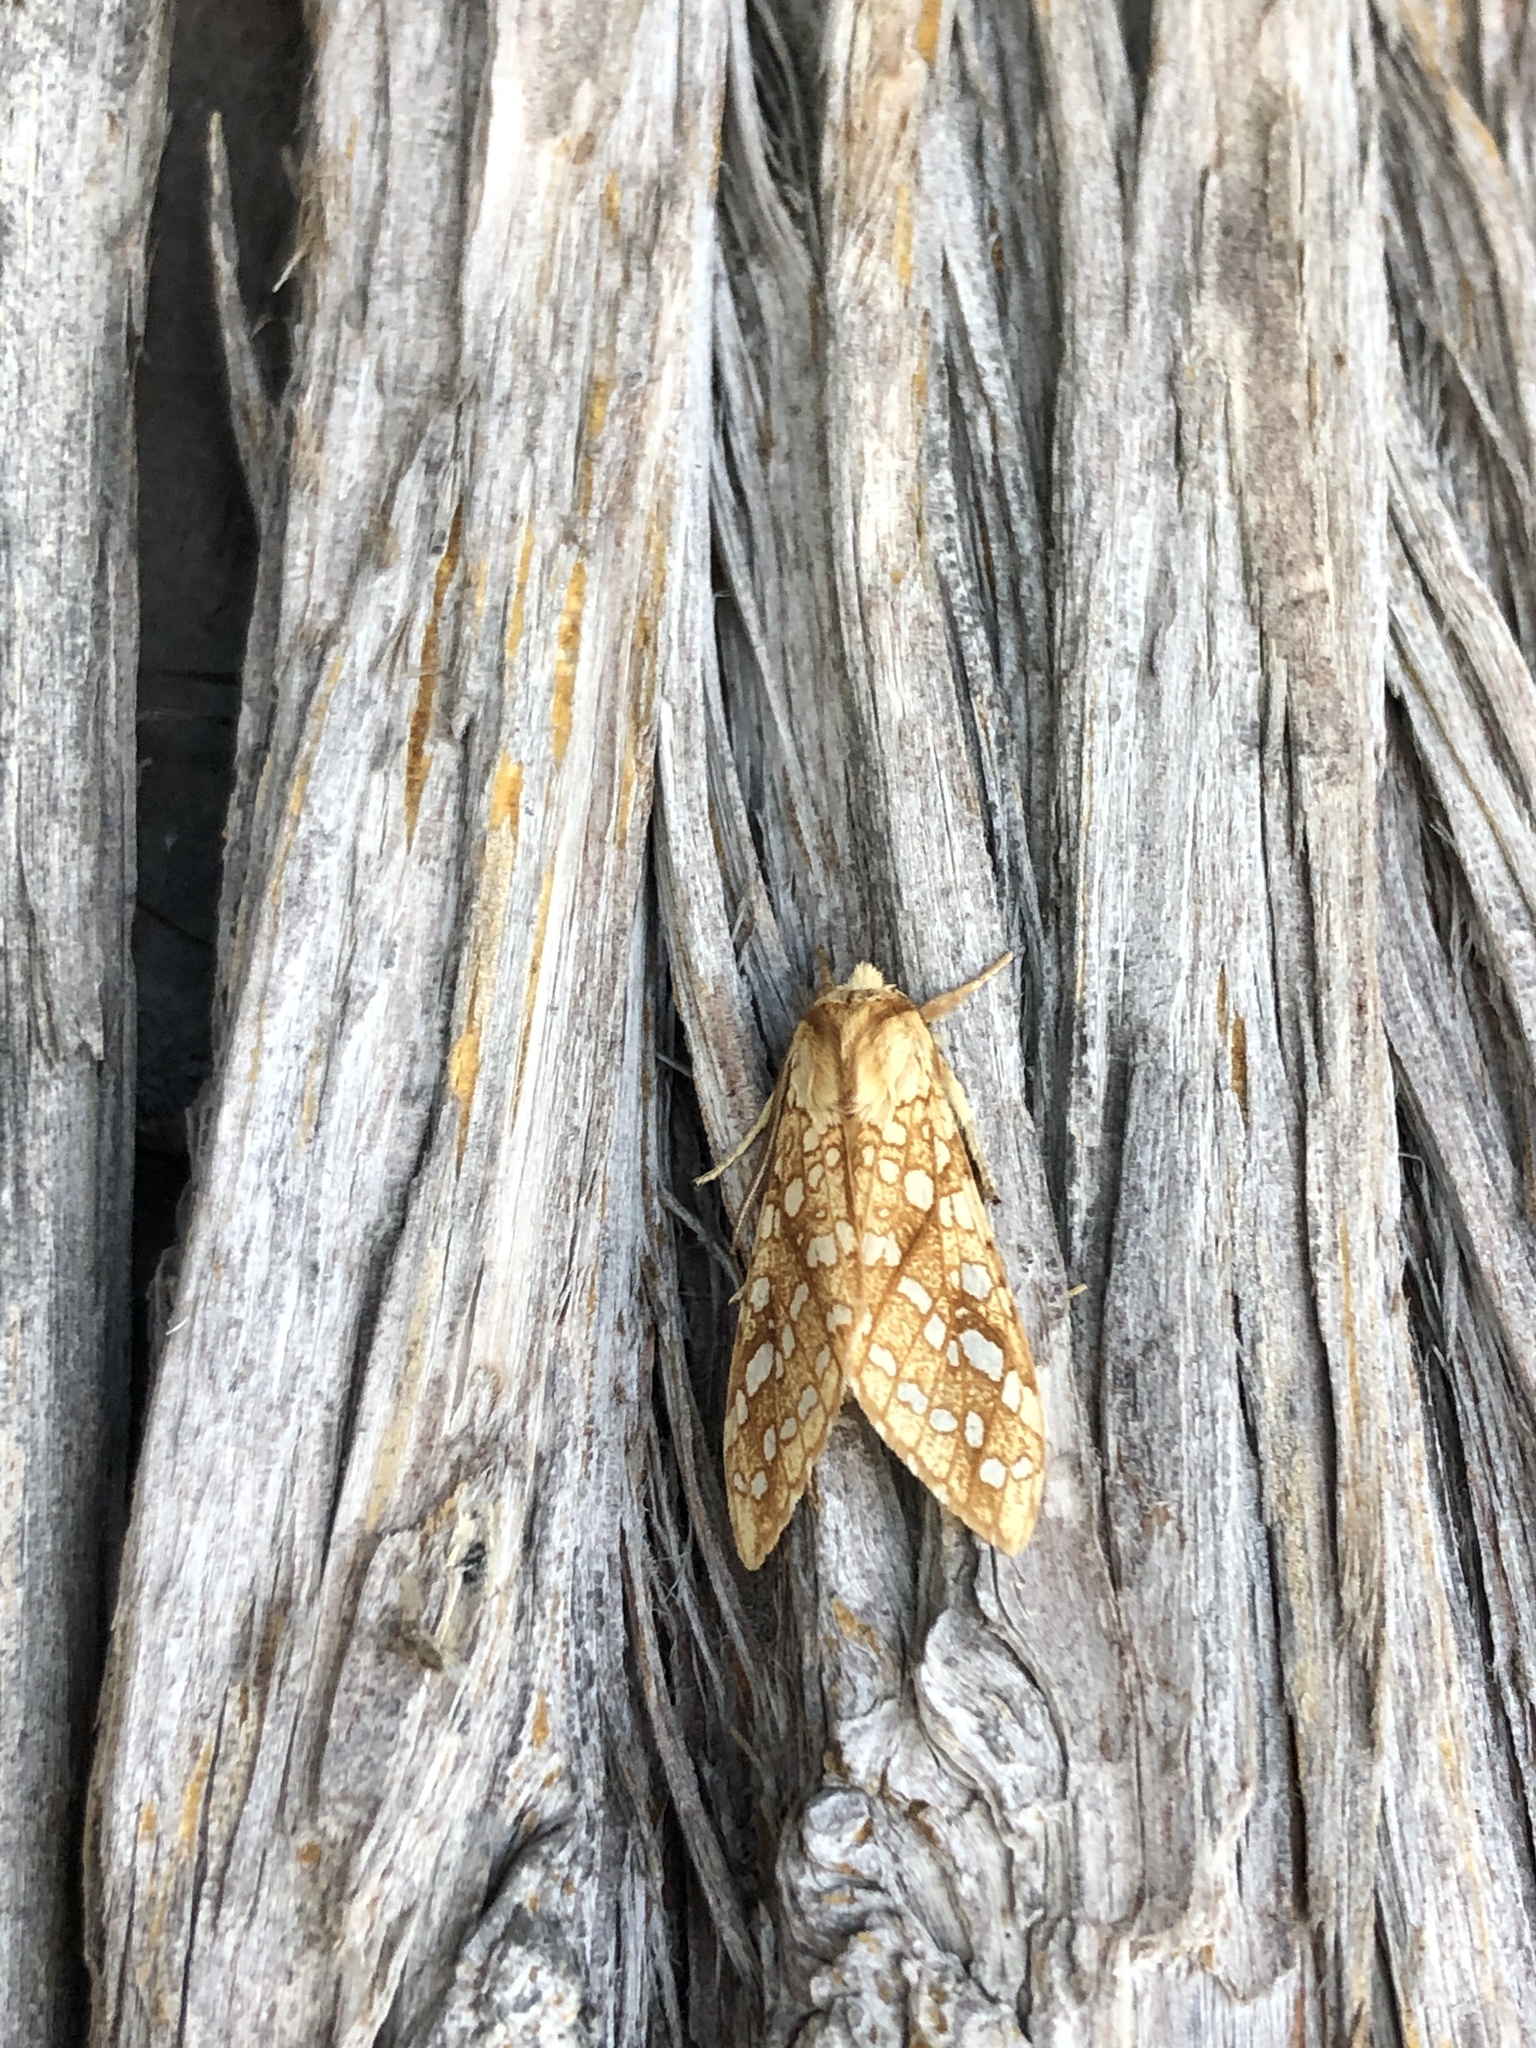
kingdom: Animalia
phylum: Arthropoda
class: Insecta
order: Lepidoptera
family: Erebidae
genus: Lophocampa
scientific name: Lophocampa caryae
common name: Hickory tussock moth
